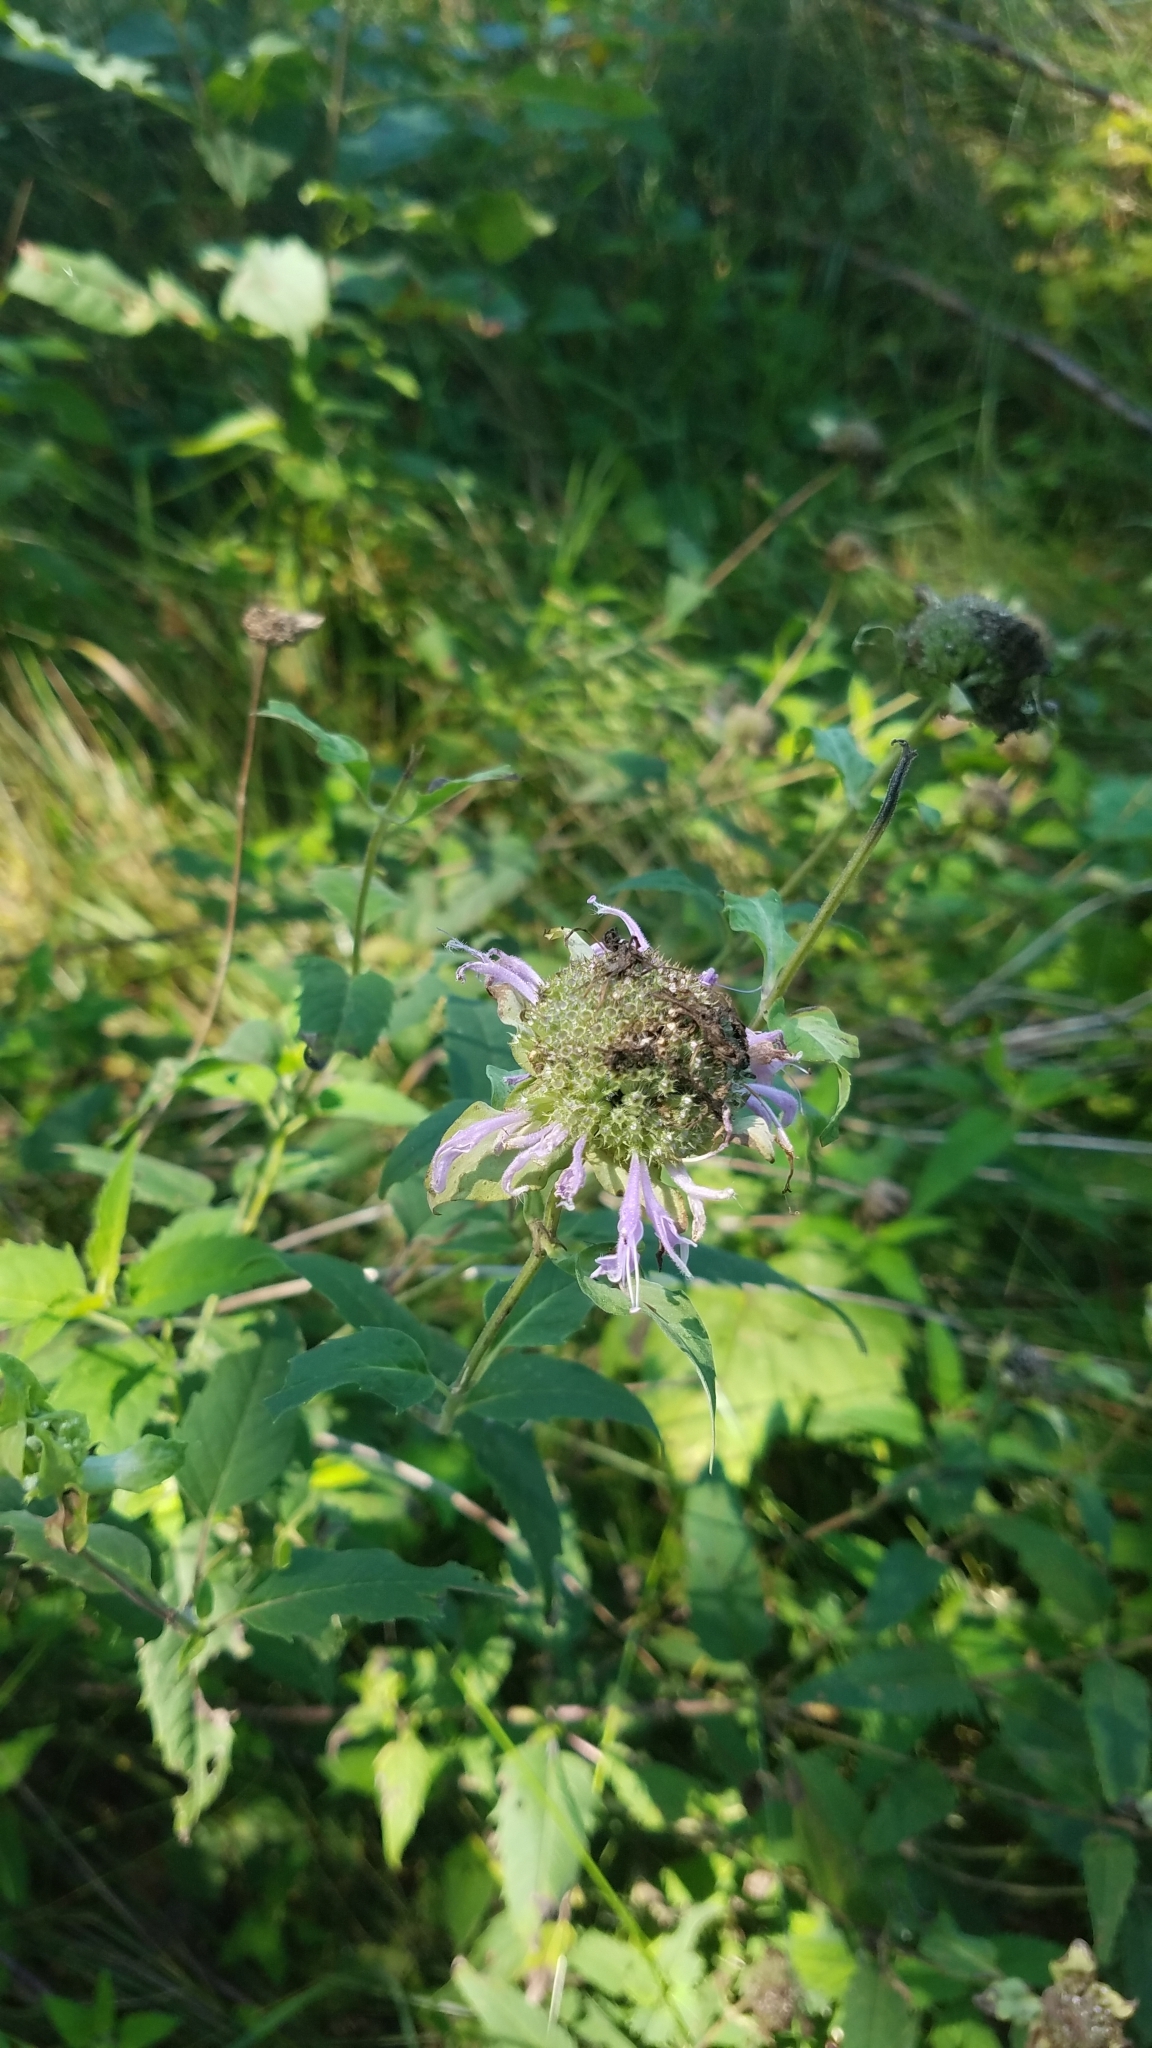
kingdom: Plantae
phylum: Tracheophyta
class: Magnoliopsida
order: Lamiales
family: Lamiaceae
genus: Monarda
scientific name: Monarda fistulosa
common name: Purple beebalm
